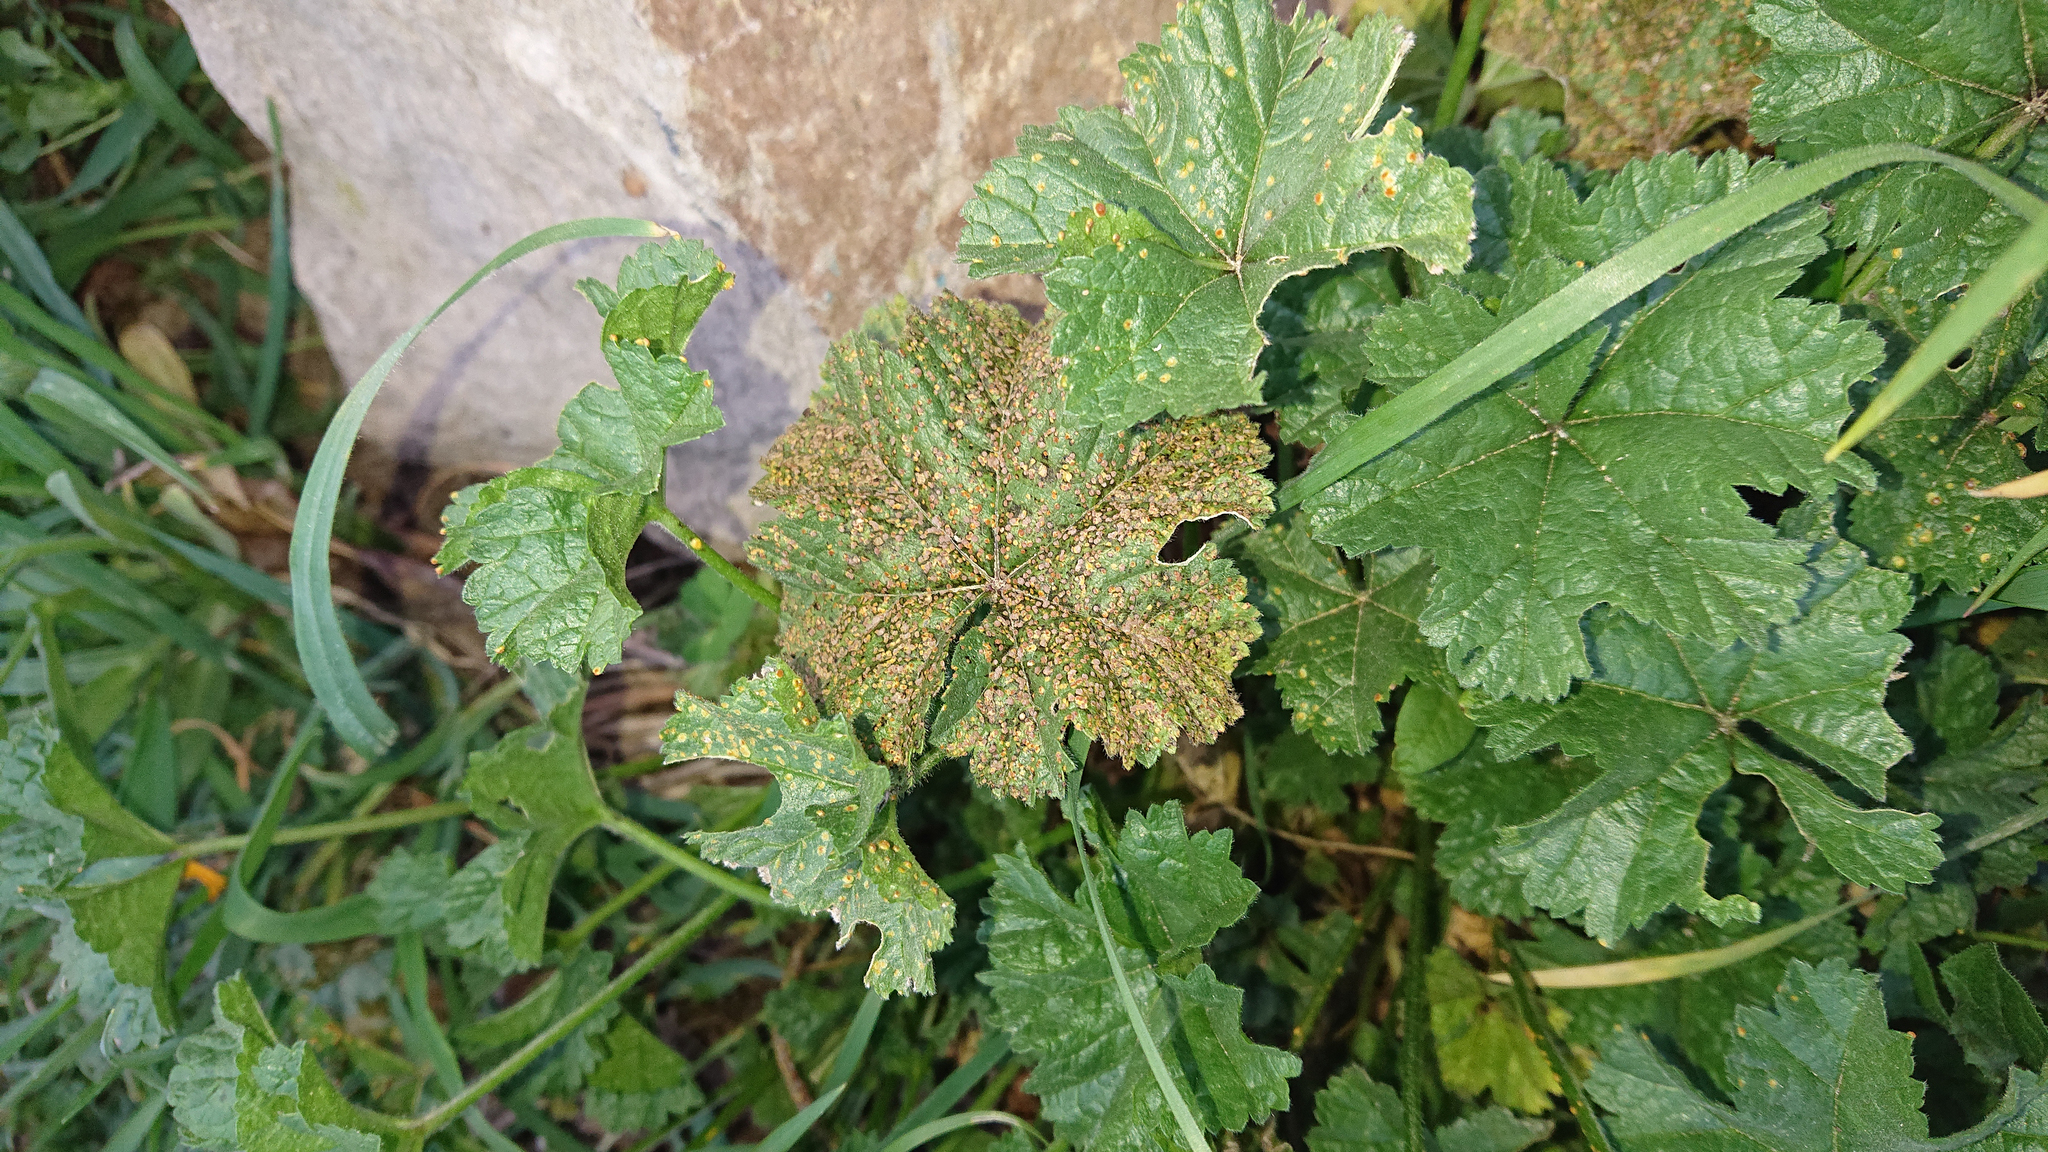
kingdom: Fungi
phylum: Basidiomycota
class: Pucciniomycetes
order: Pucciniales
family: Pucciniaceae
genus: Puccinia
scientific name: Puccinia malvacearum
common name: Hollyhock rust
